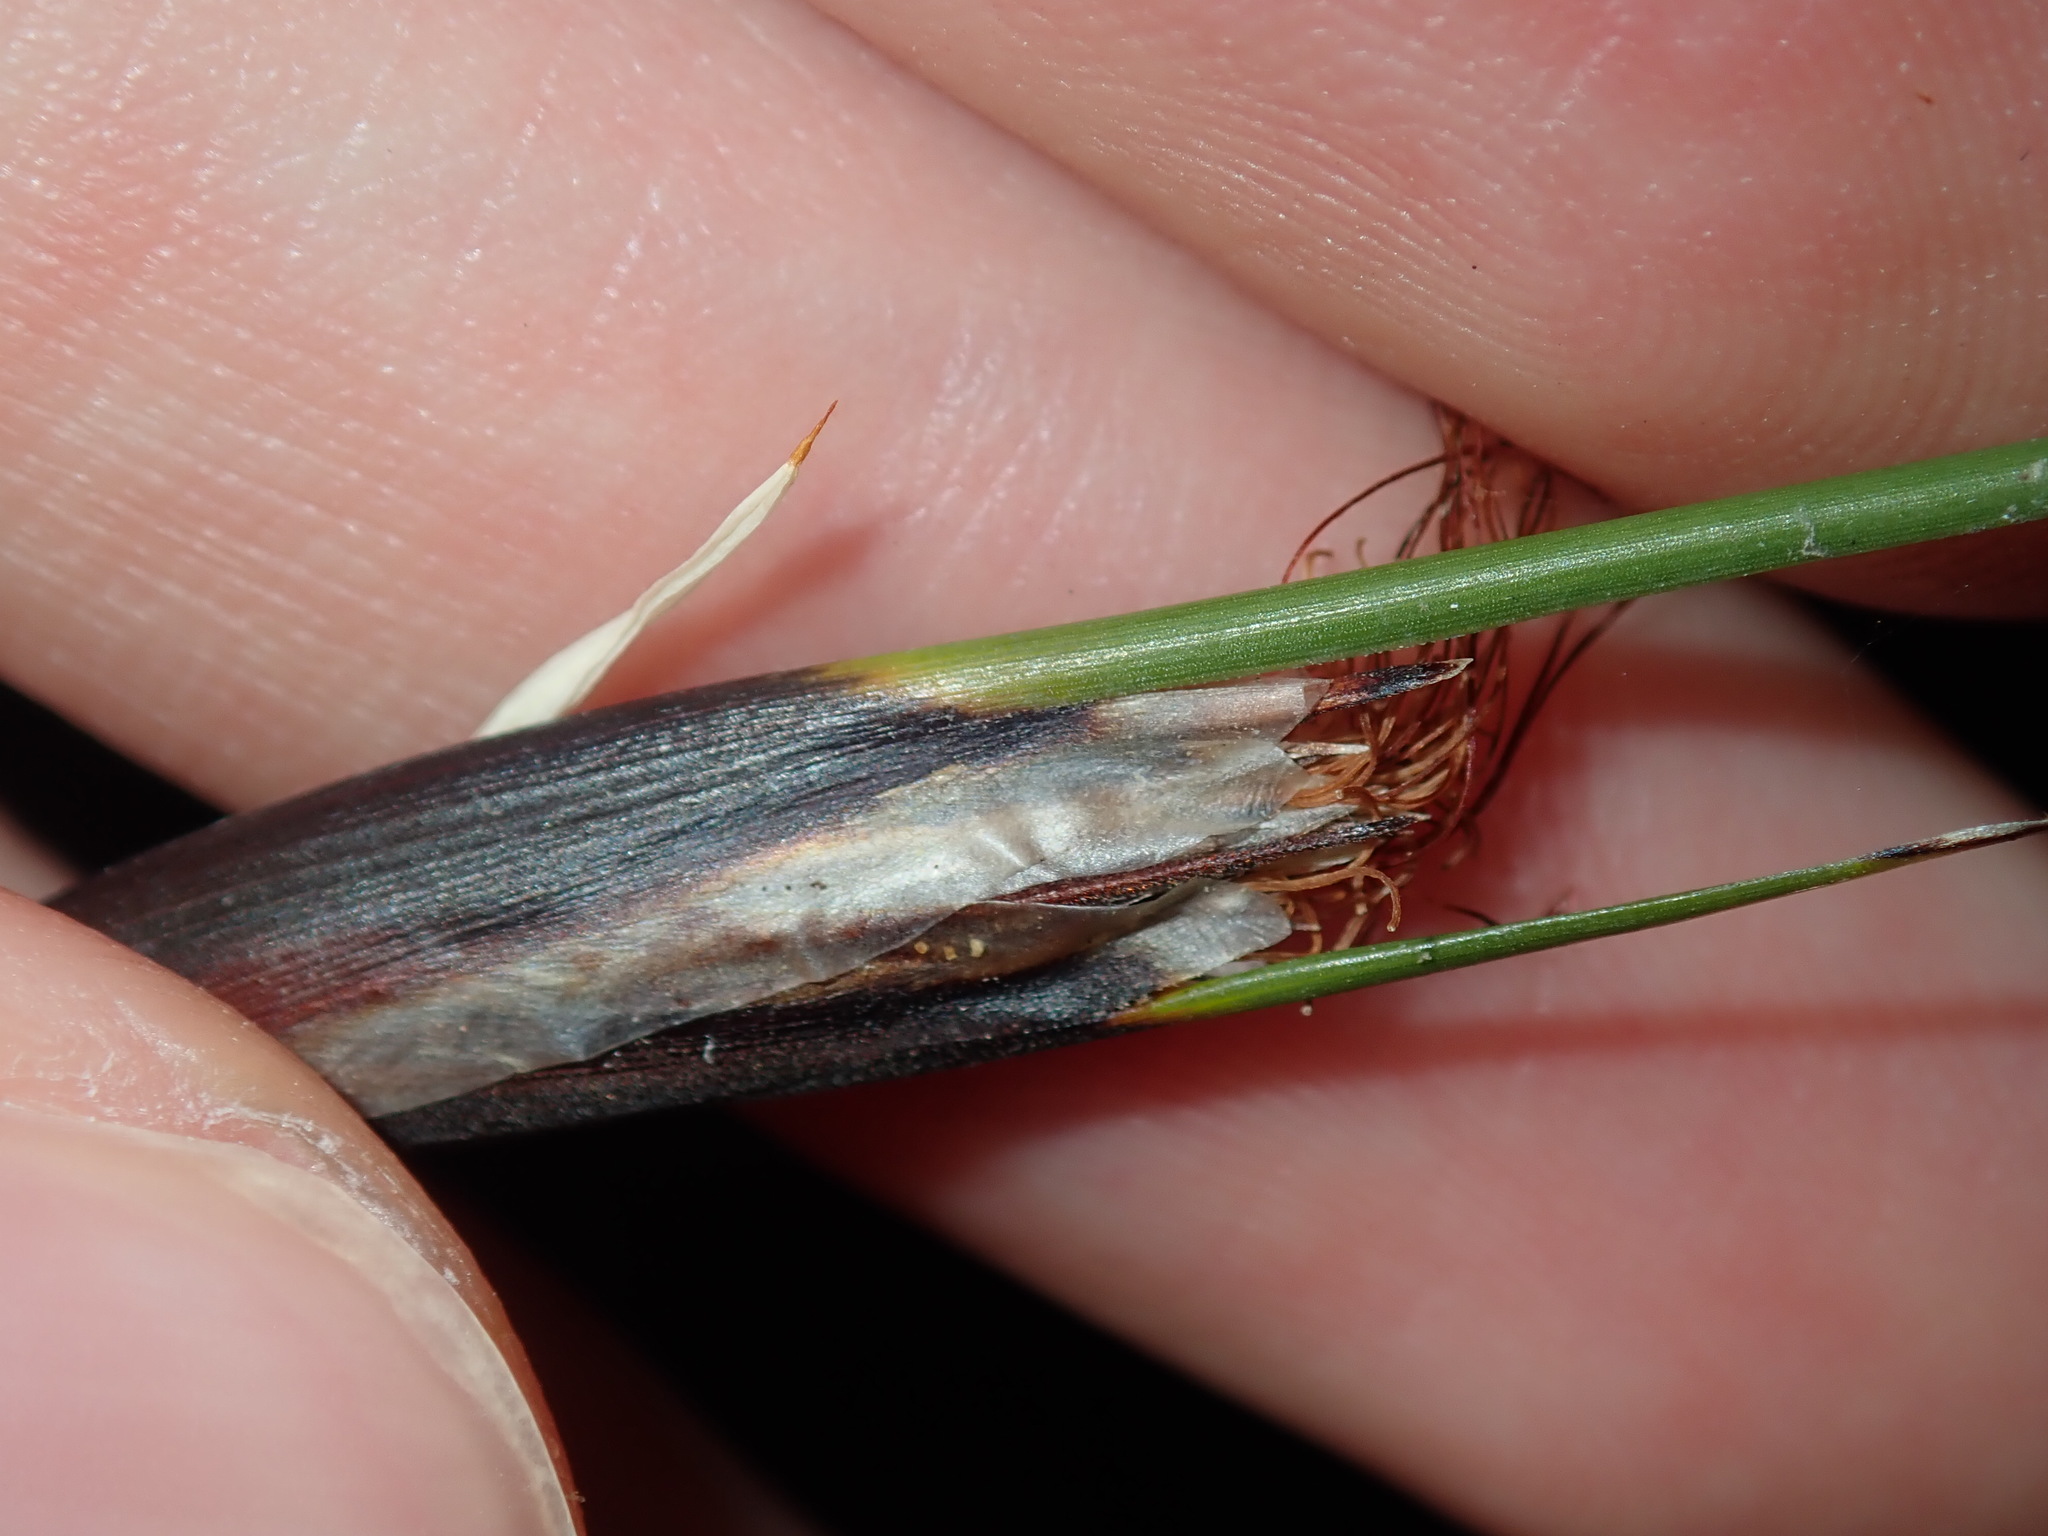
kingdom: Plantae
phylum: Tracheophyta
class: Liliopsida
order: Poales
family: Cyperaceae
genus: Ptilothrix
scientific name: Ptilothrix deusta
